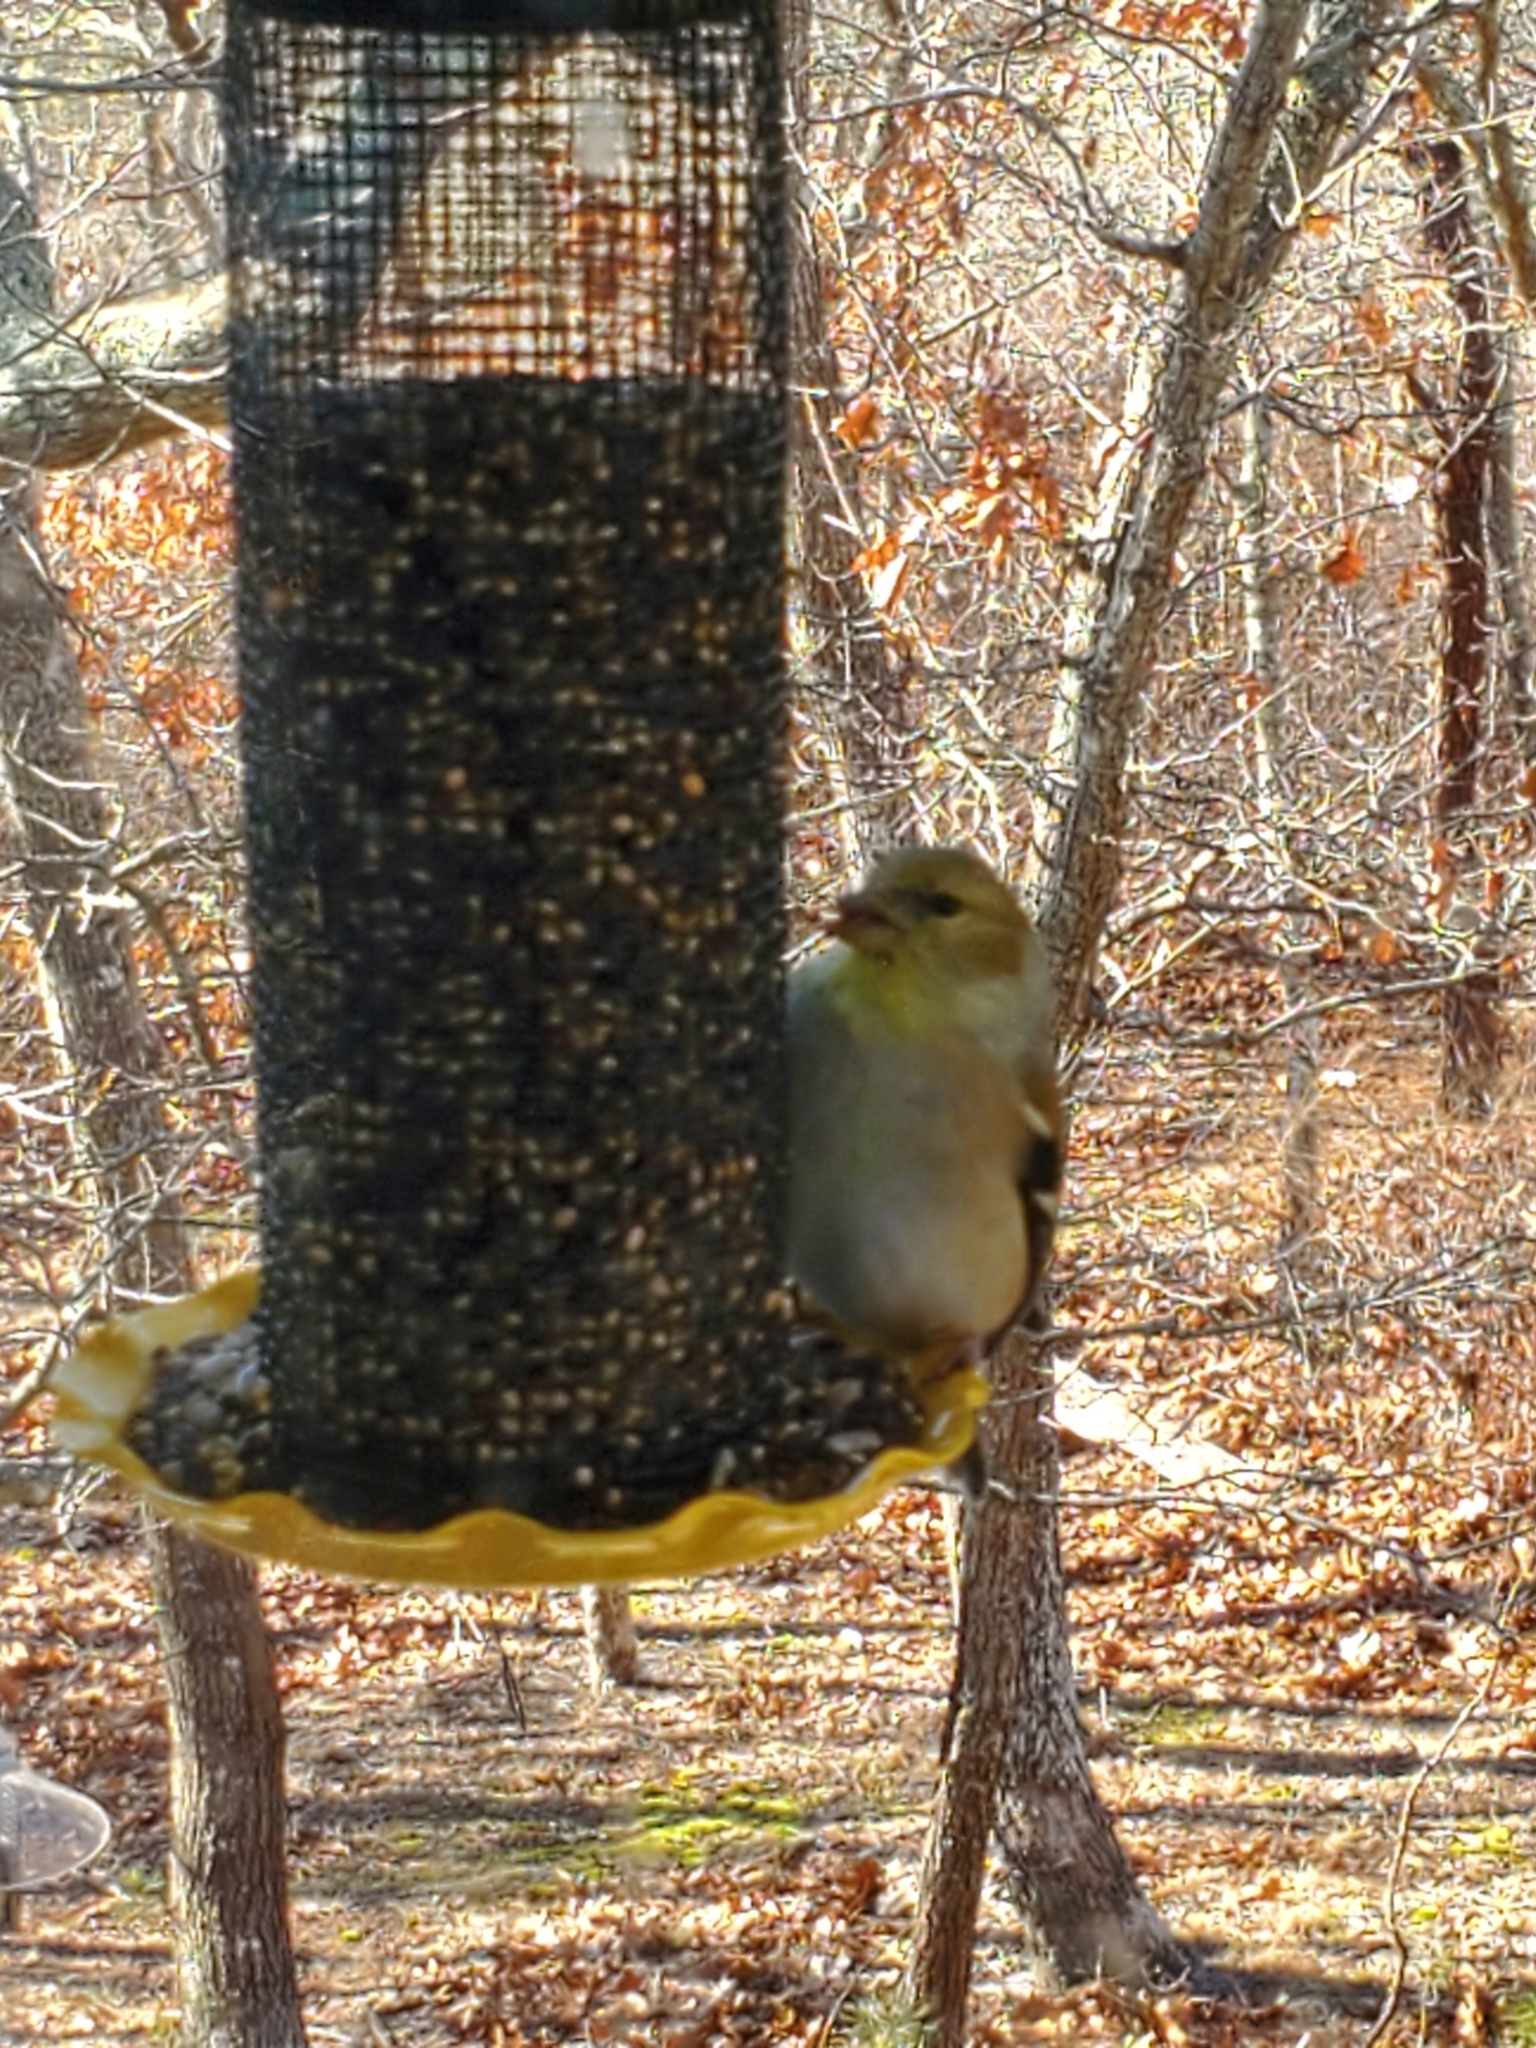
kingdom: Animalia
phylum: Chordata
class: Aves
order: Passeriformes
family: Fringillidae
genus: Spinus
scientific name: Spinus tristis
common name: American goldfinch
